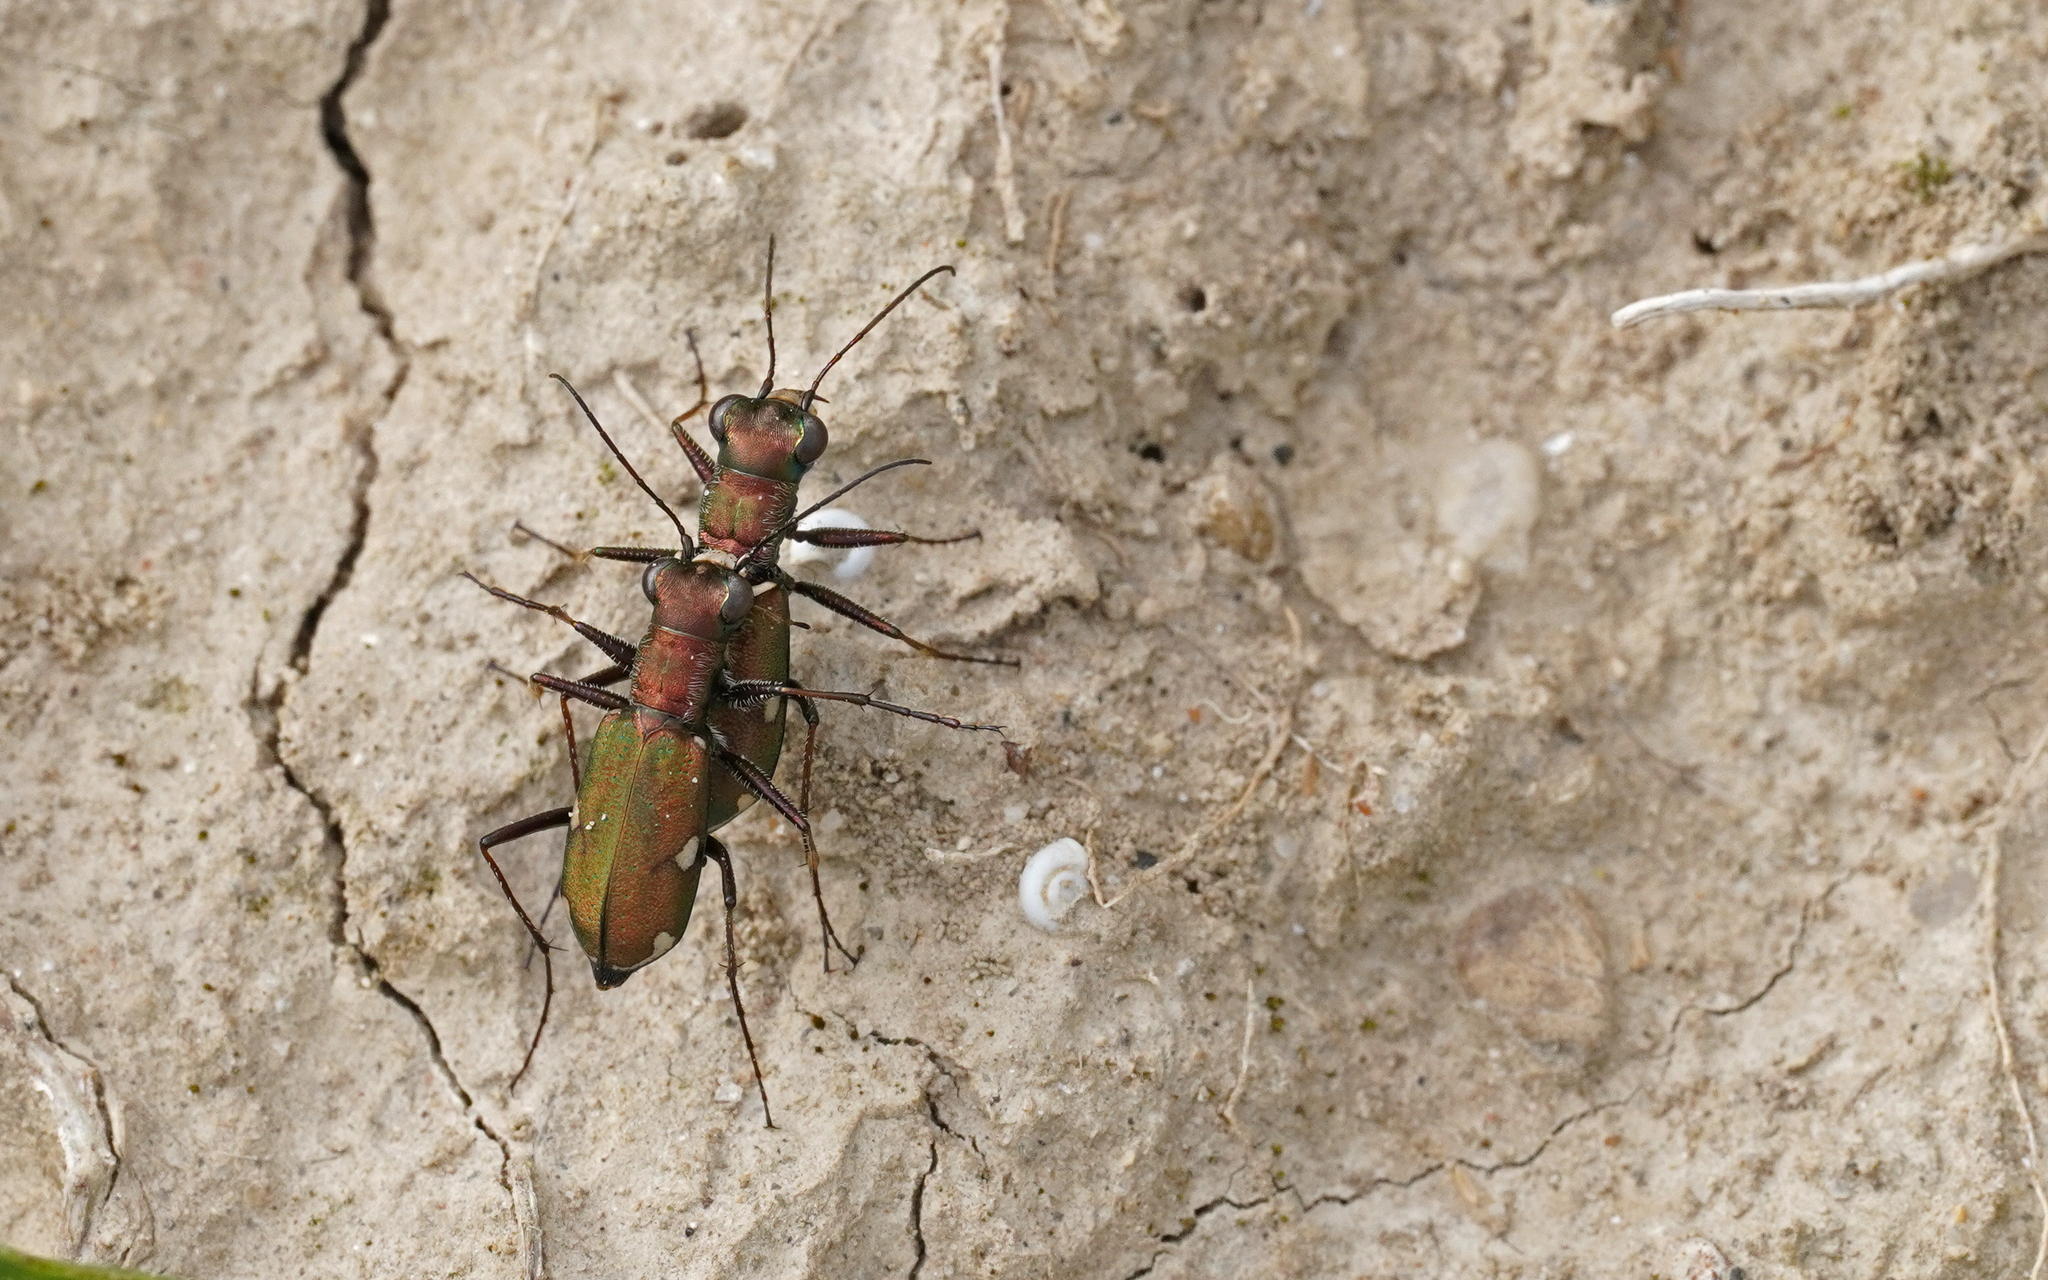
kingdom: Animalia
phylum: Arthropoda
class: Insecta
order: Coleoptera
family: Carabidae
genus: Cylindera
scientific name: Cylindera germanica
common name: Cliff tiger beetle
